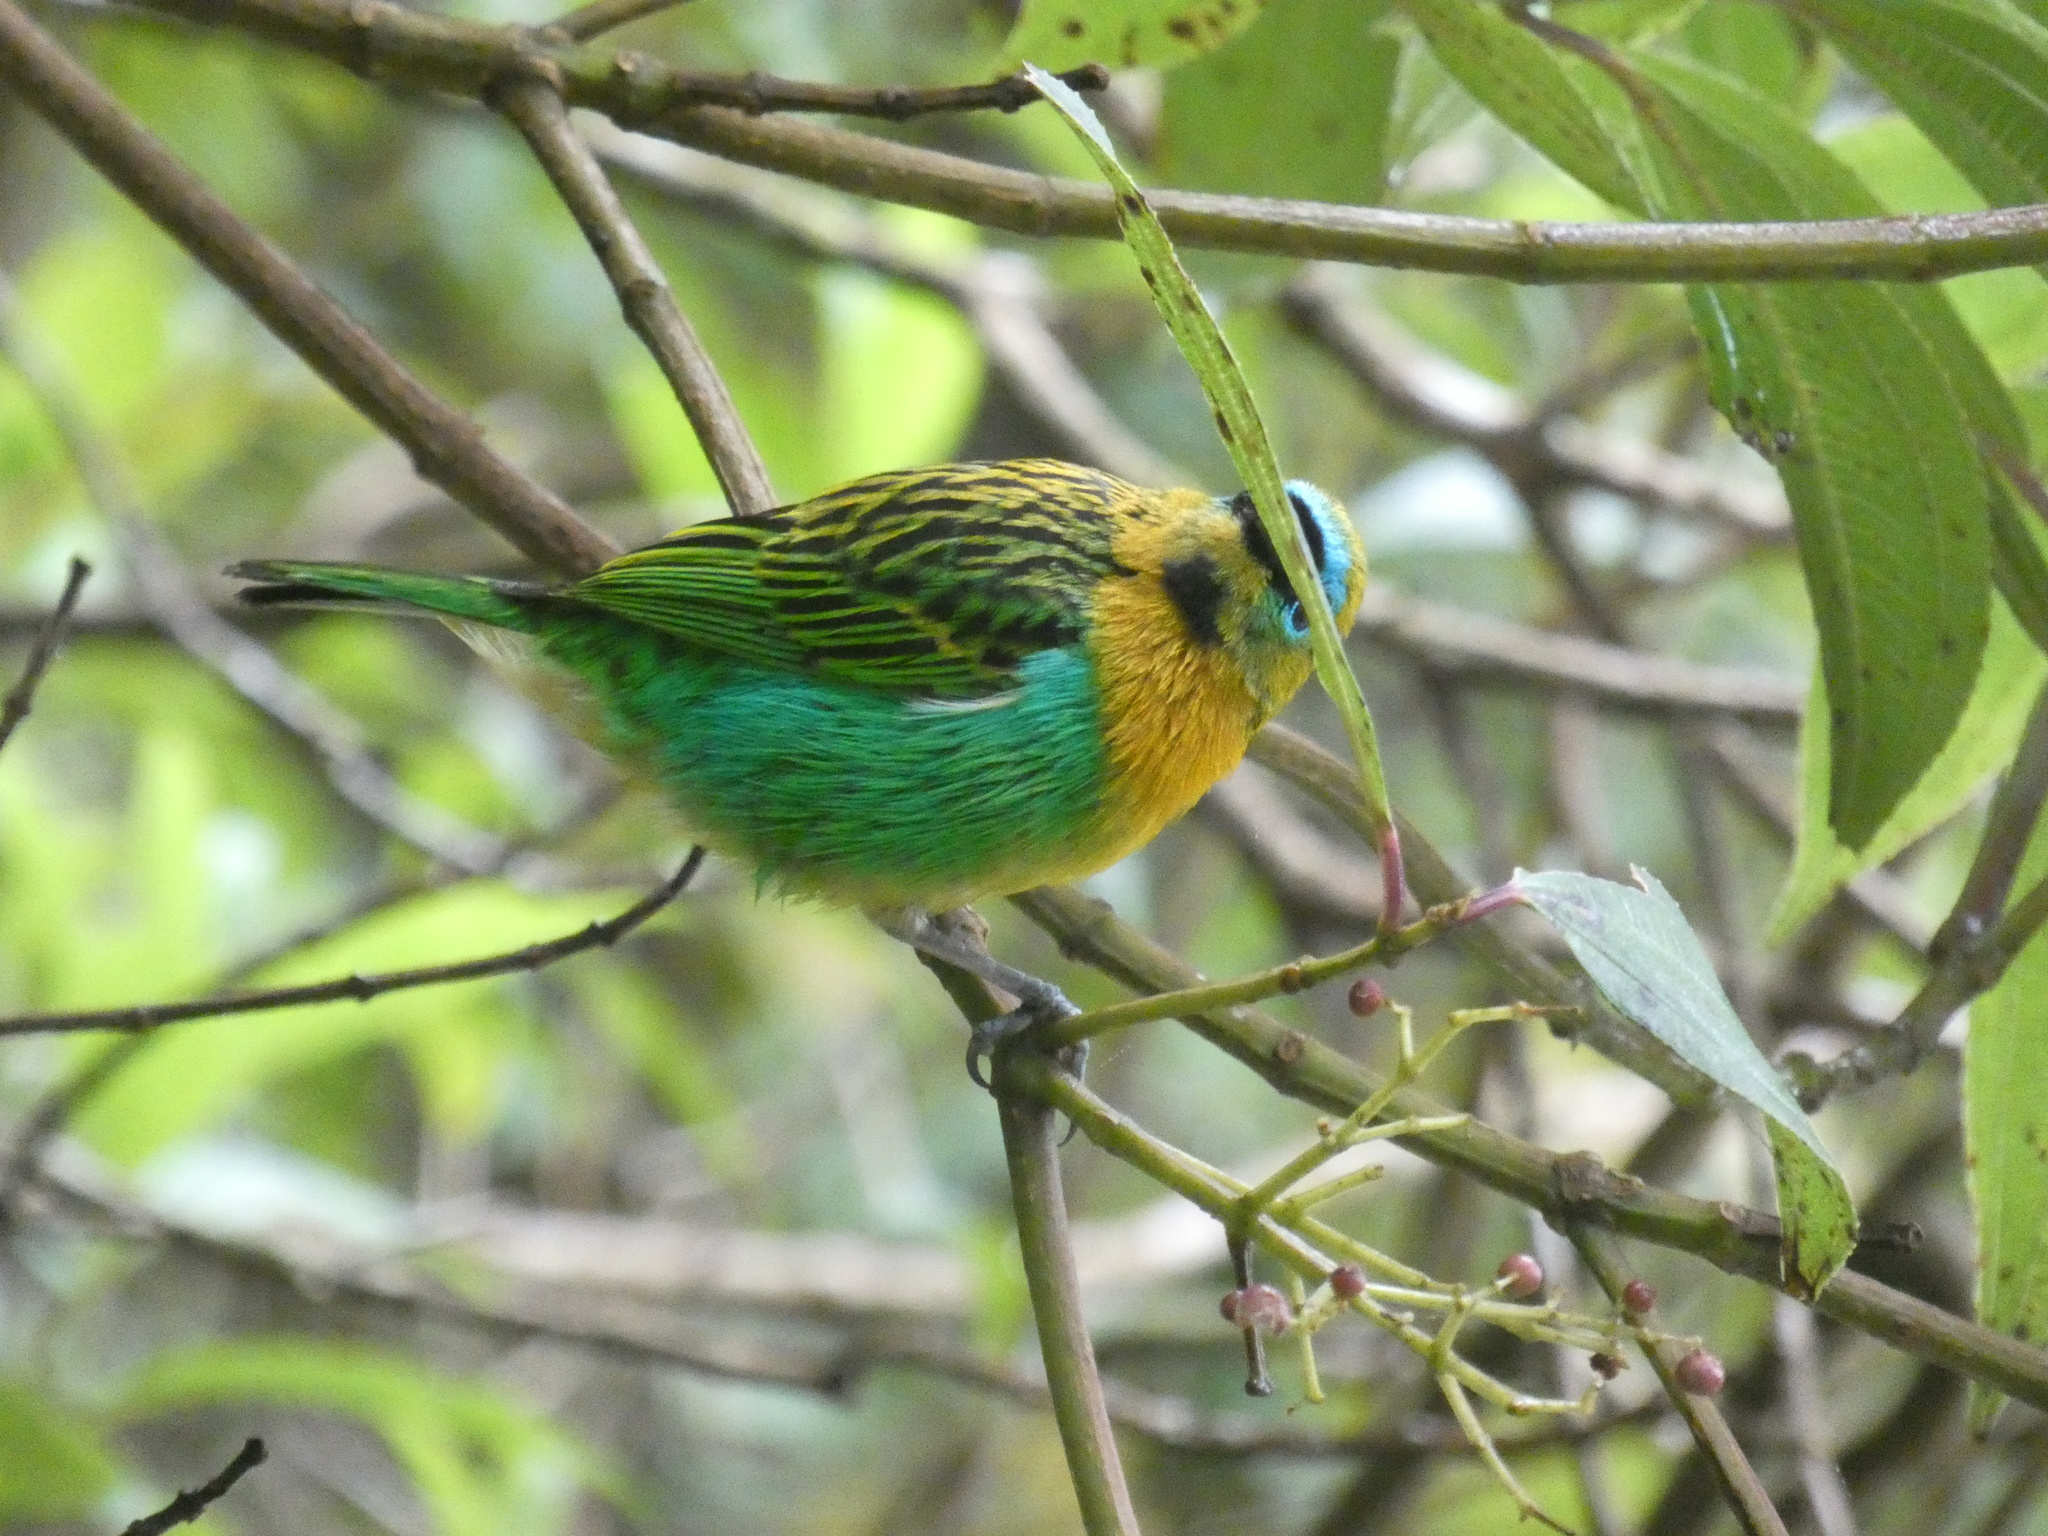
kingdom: Animalia
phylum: Chordata
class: Aves
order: Passeriformes
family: Thraupidae
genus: Tangara
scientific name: Tangara desmaresti
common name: Brassy-breasted tanager
